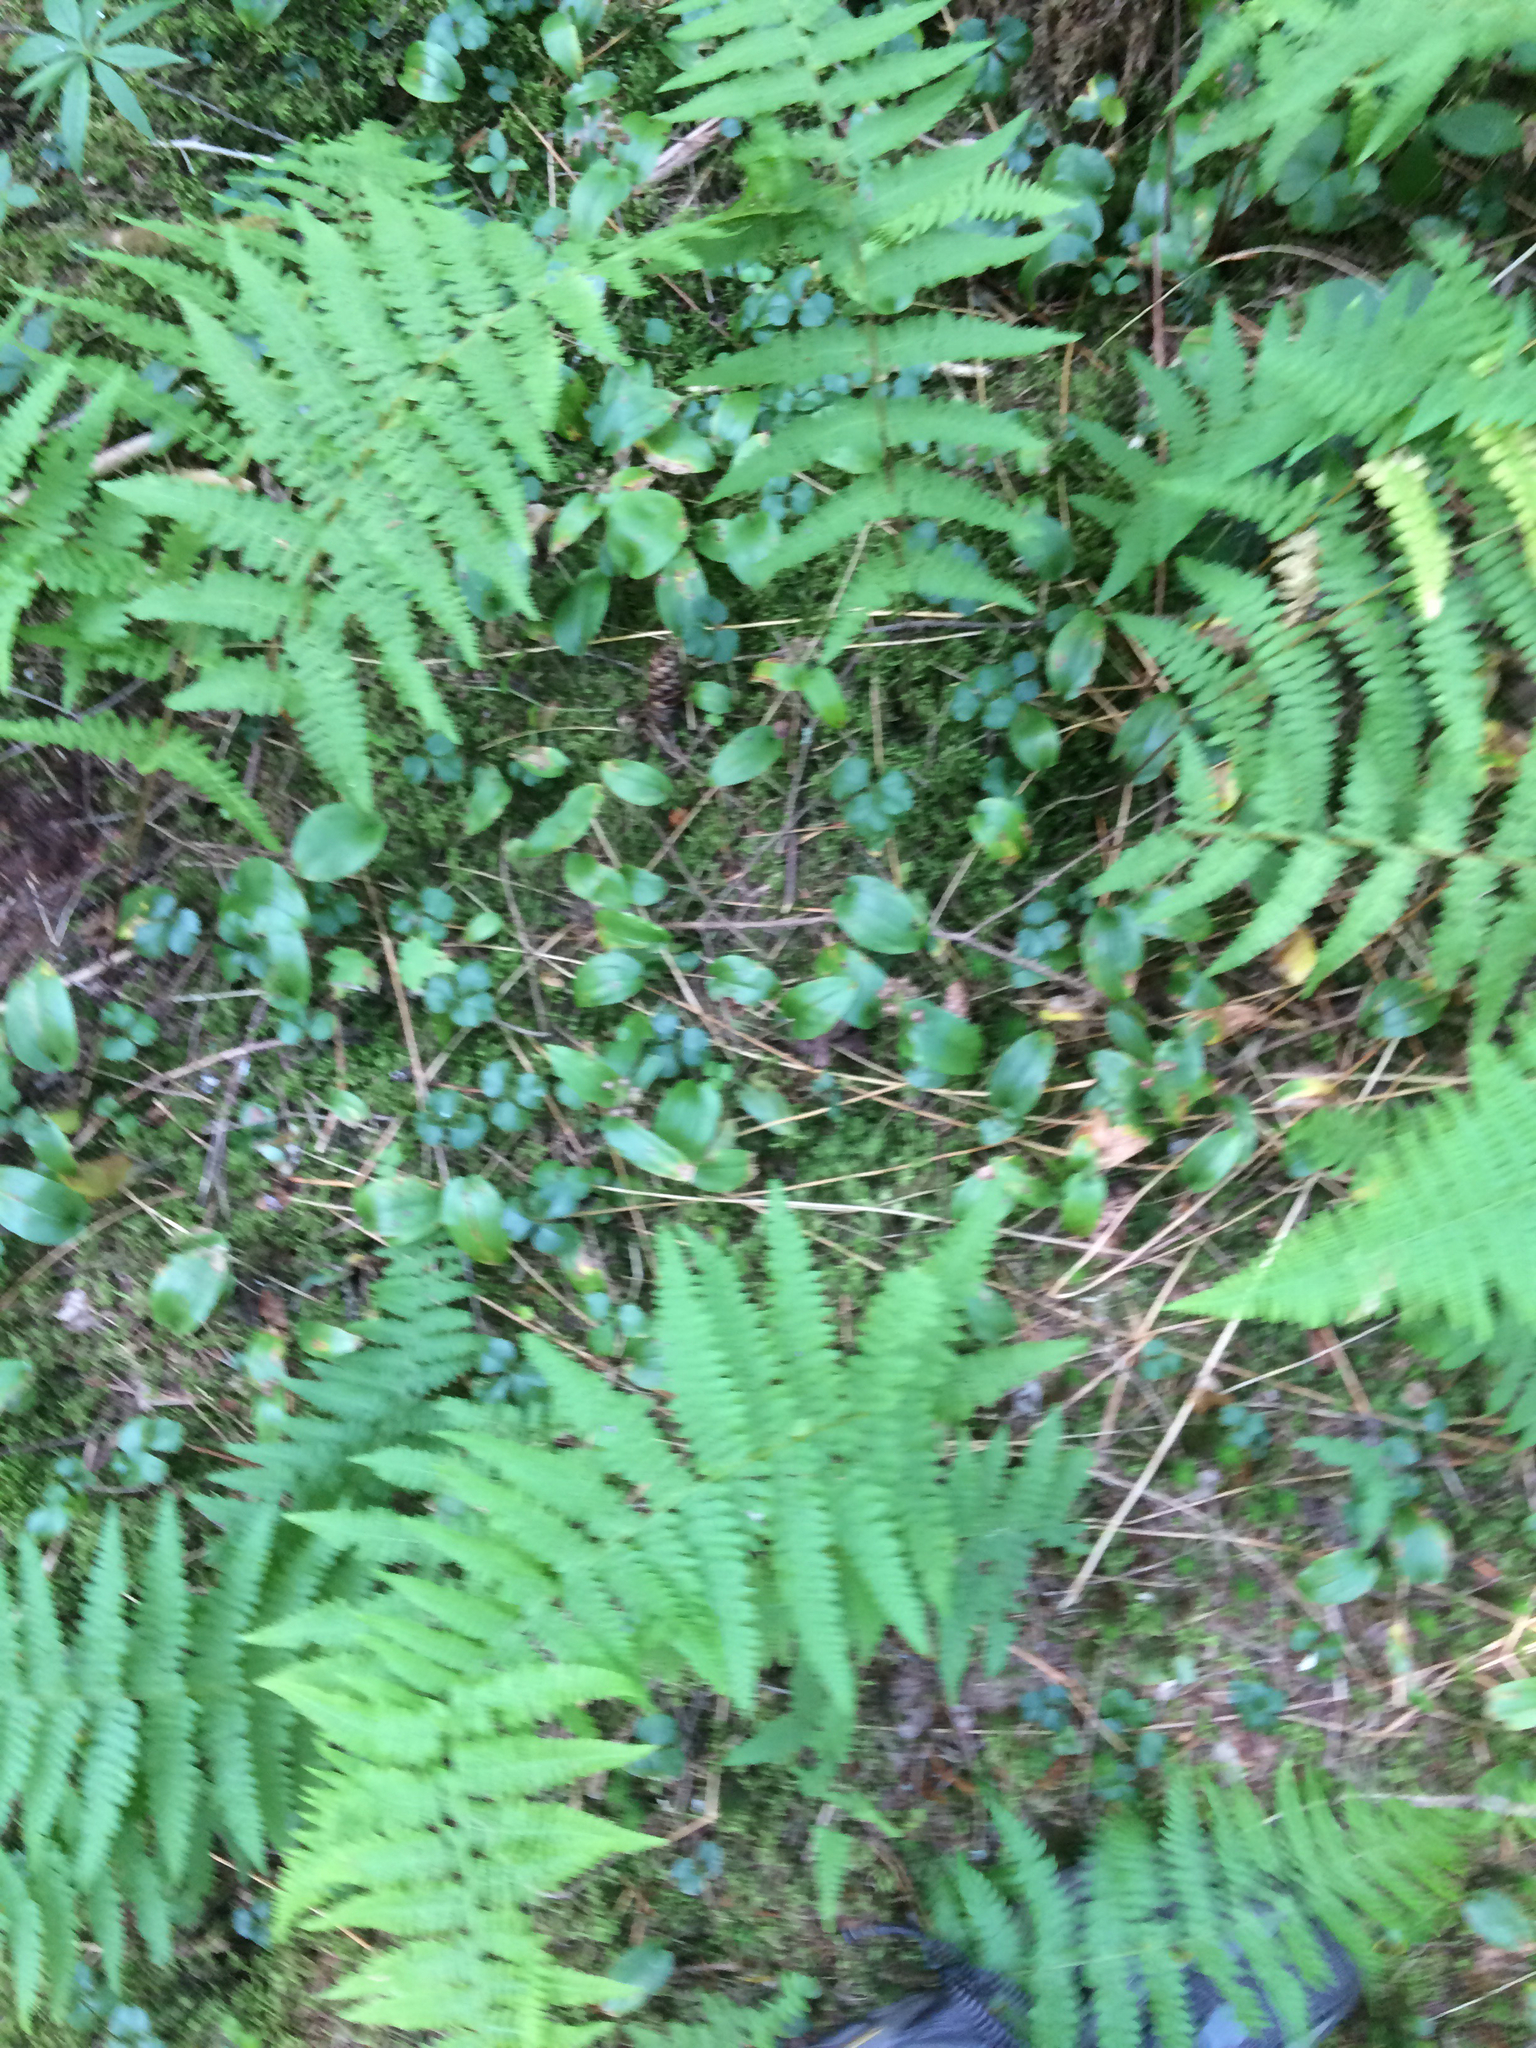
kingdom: Plantae
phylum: Tracheophyta
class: Liliopsida
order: Asparagales
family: Asparagaceae
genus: Maianthemum
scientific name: Maianthemum canadense
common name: False lily-of-the-valley
